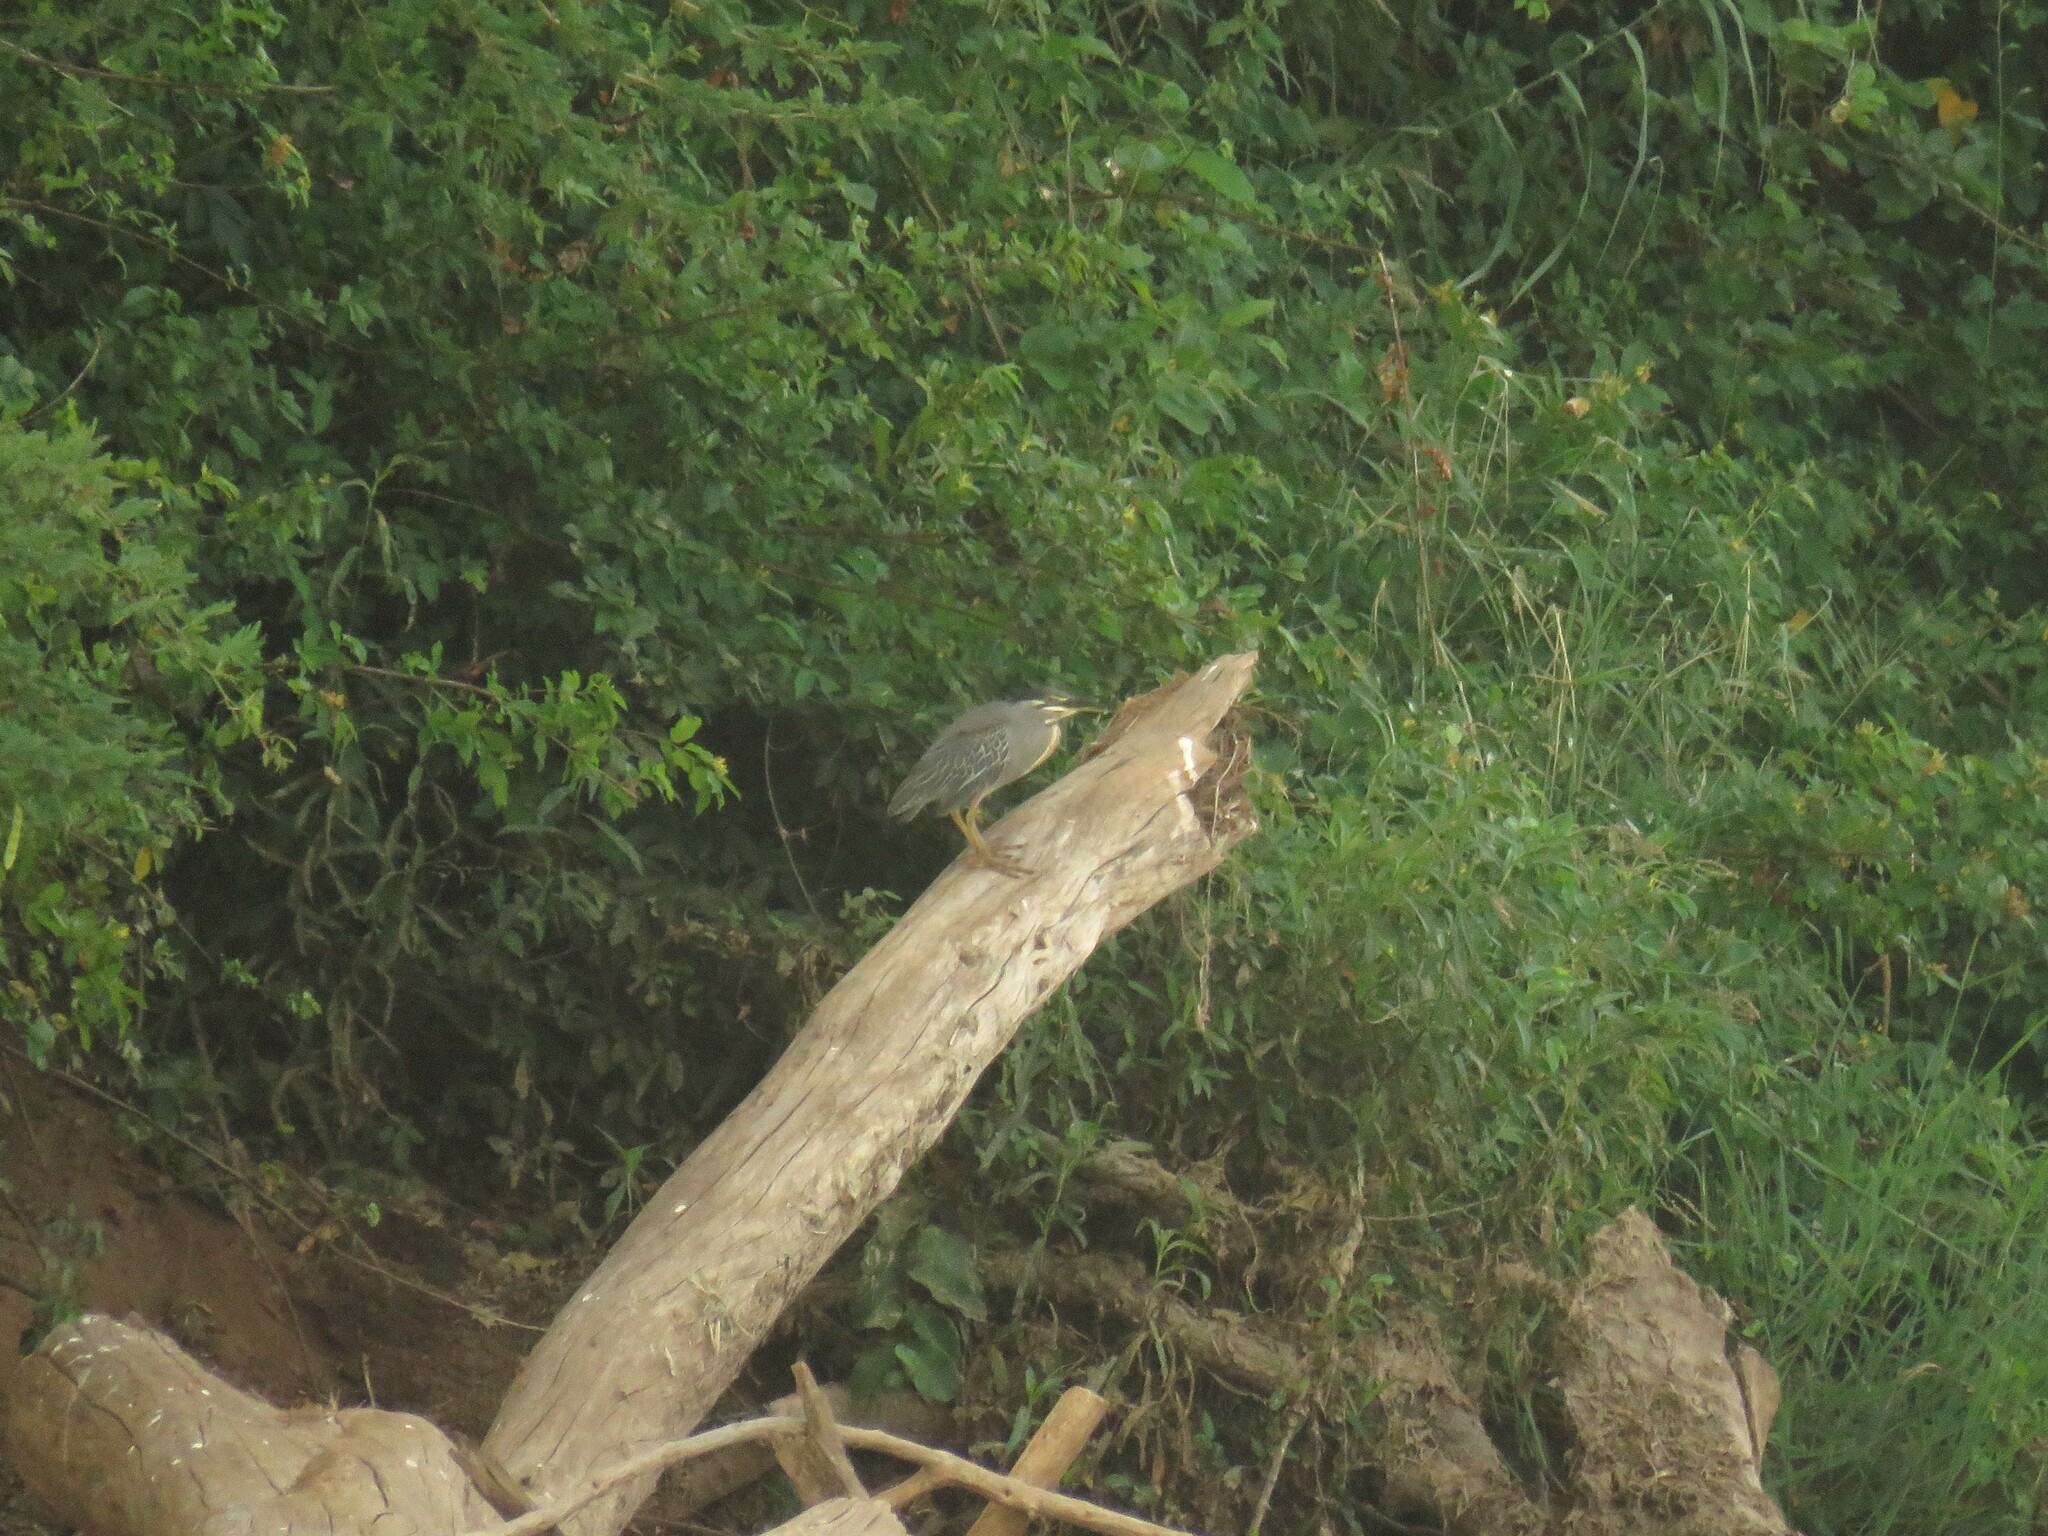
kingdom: Animalia
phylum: Chordata
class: Aves
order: Pelecaniformes
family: Ardeidae
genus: Butorides
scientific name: Butorides striata
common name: Striated heron
